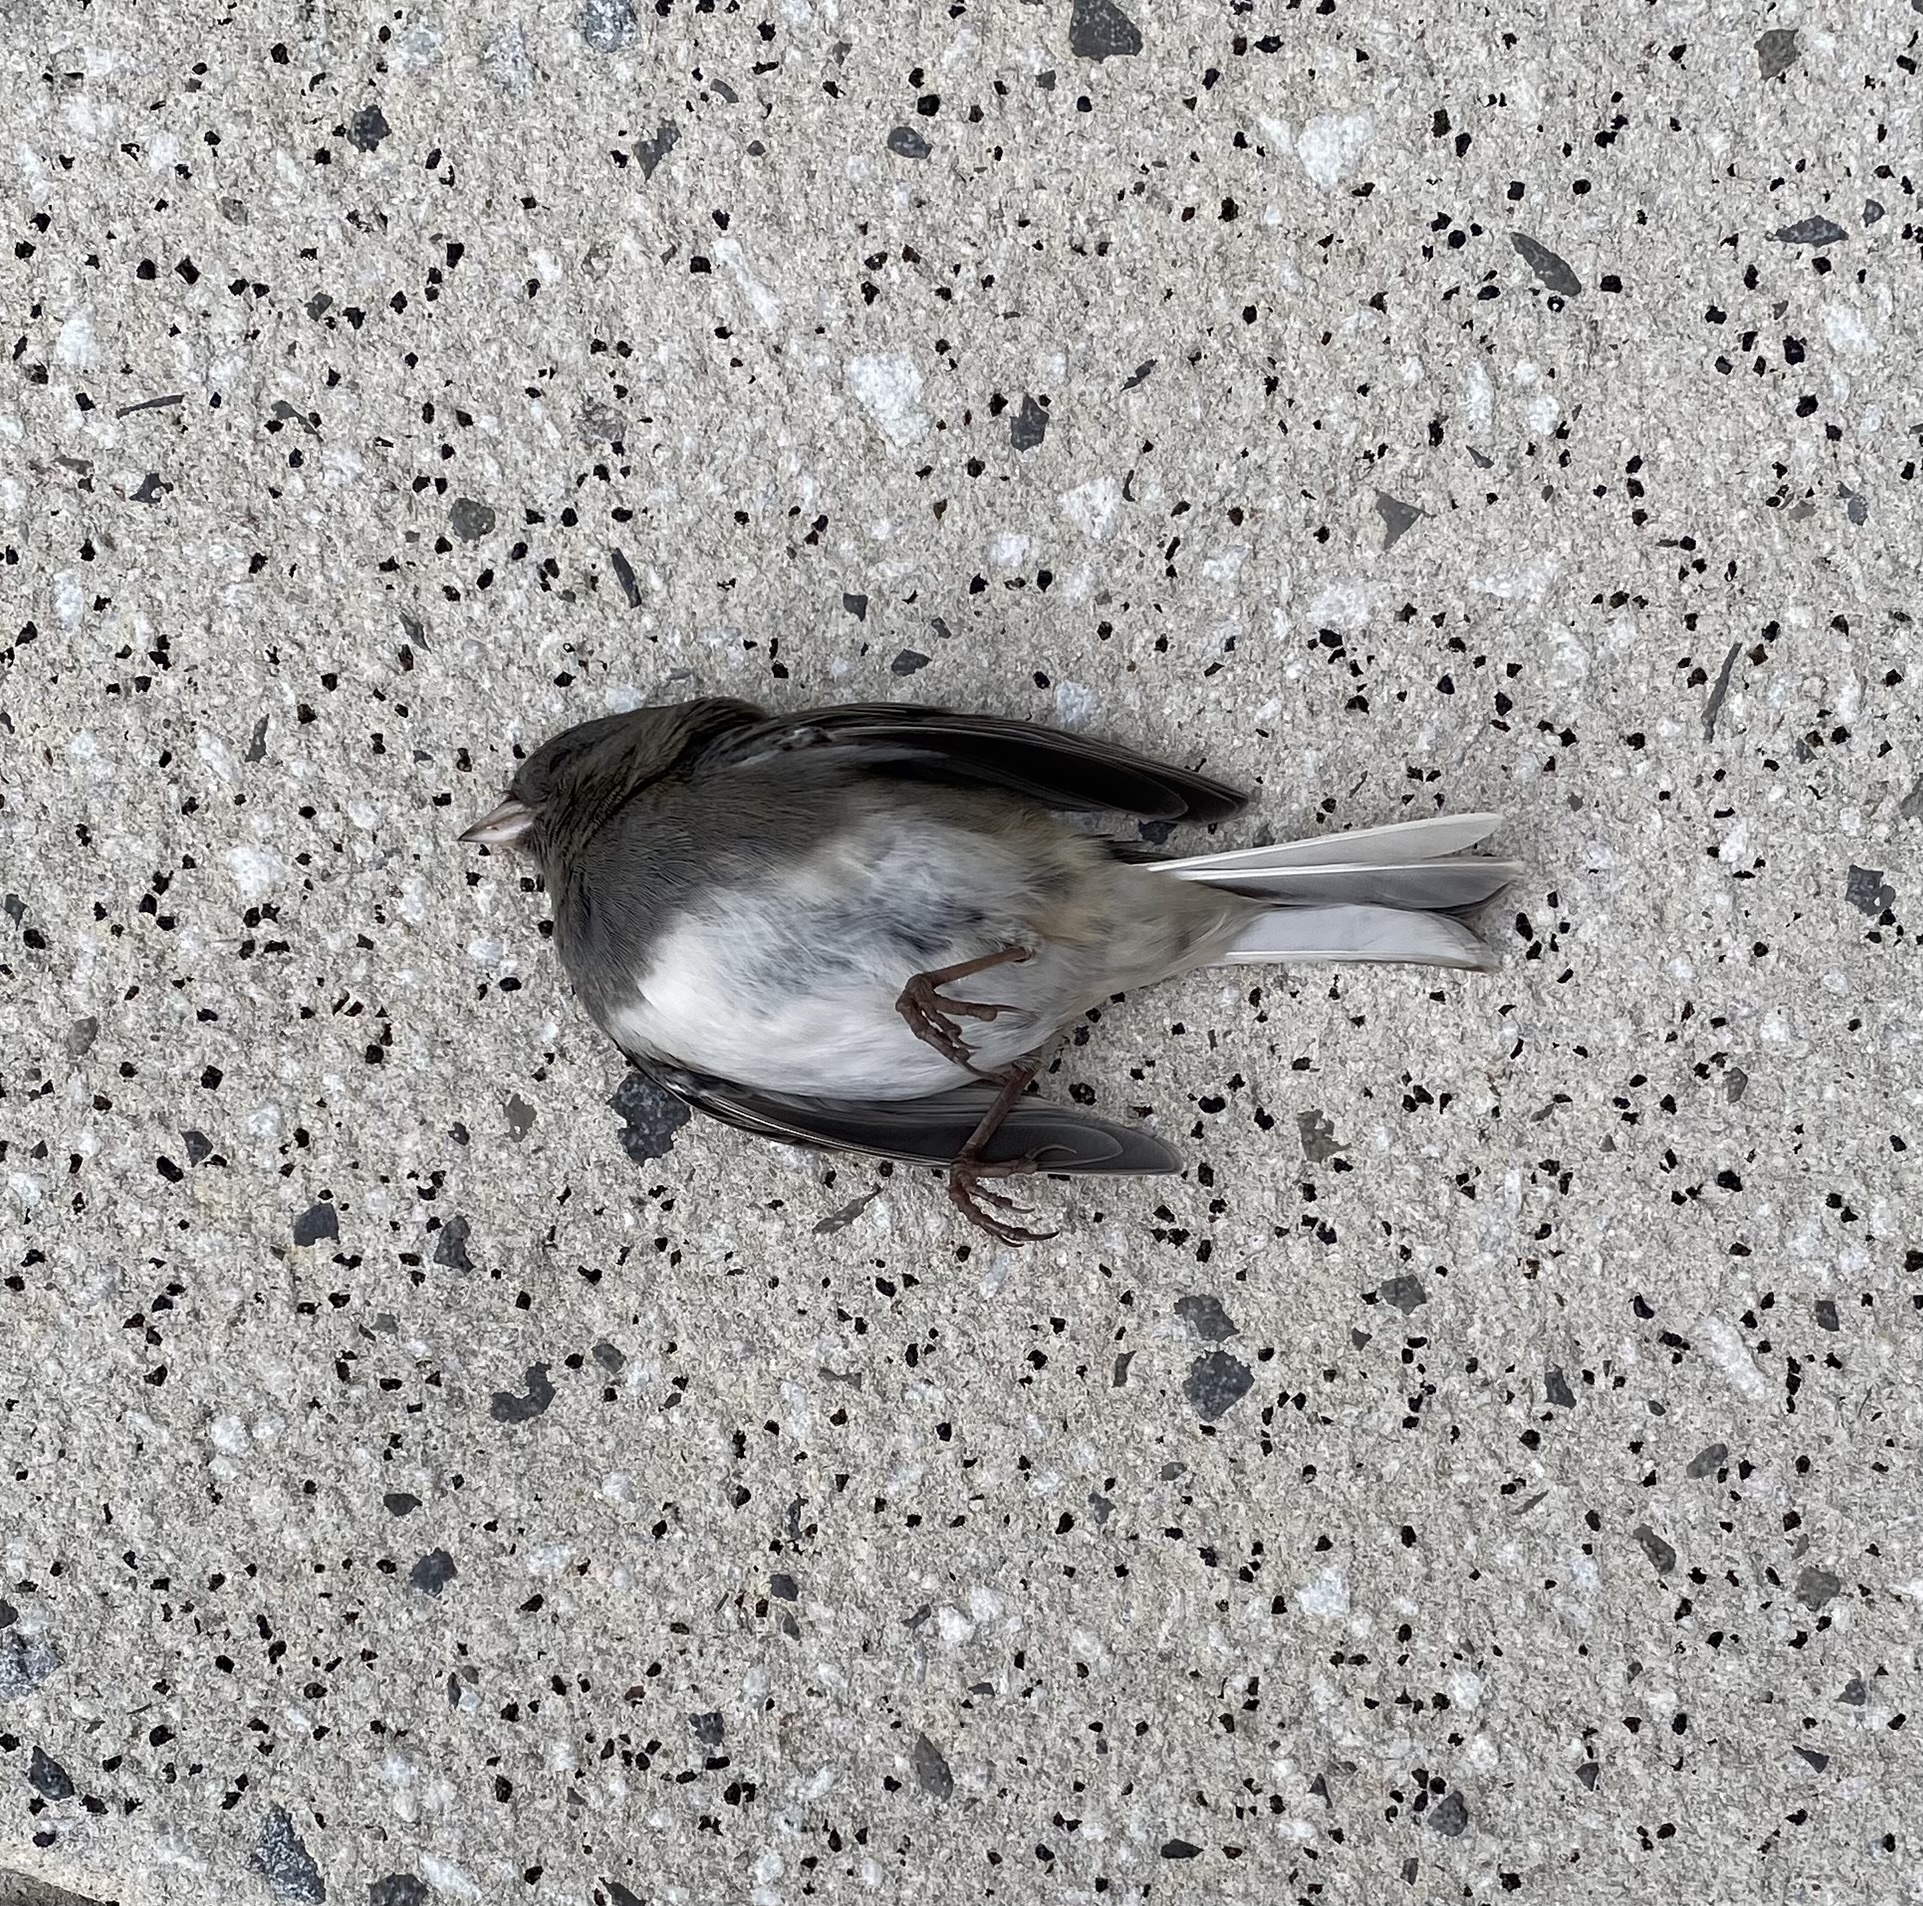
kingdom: Animalia
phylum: Chordata
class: Aves
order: Passeriformes
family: Passerellidae
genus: Junco
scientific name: Junco hyemalis
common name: Dark-eyed junco
